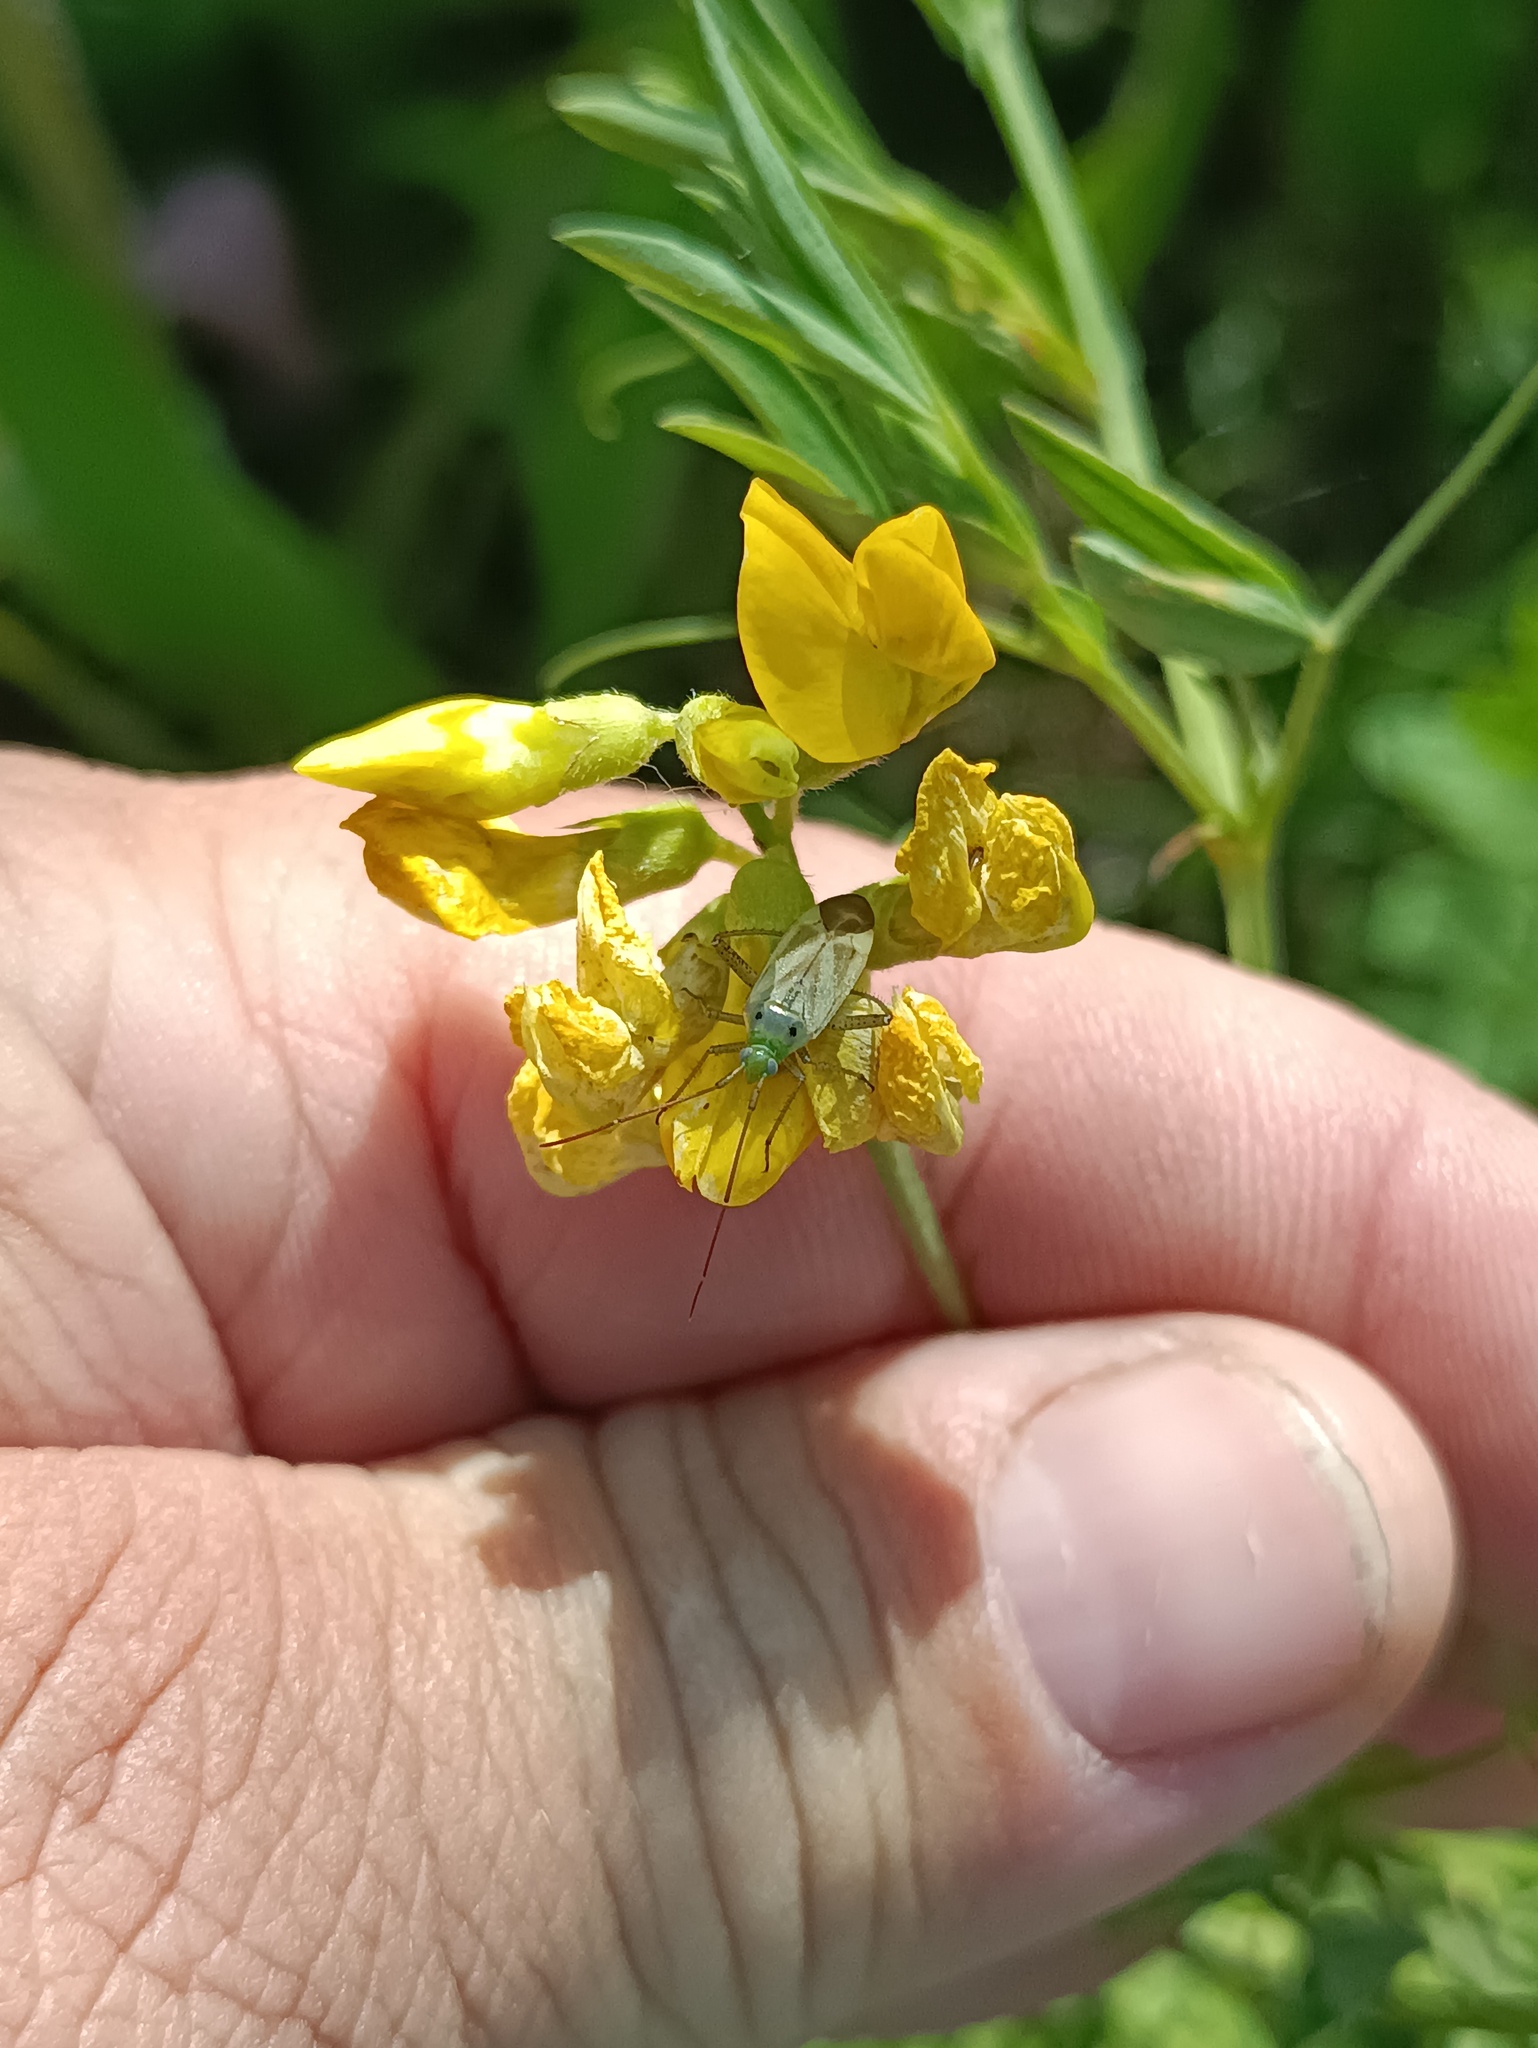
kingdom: Animalia
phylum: Arthropoda
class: Insecta
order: Hemiptera
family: Miridae
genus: Adelphocoris
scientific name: Adelphocoris lineolatus
